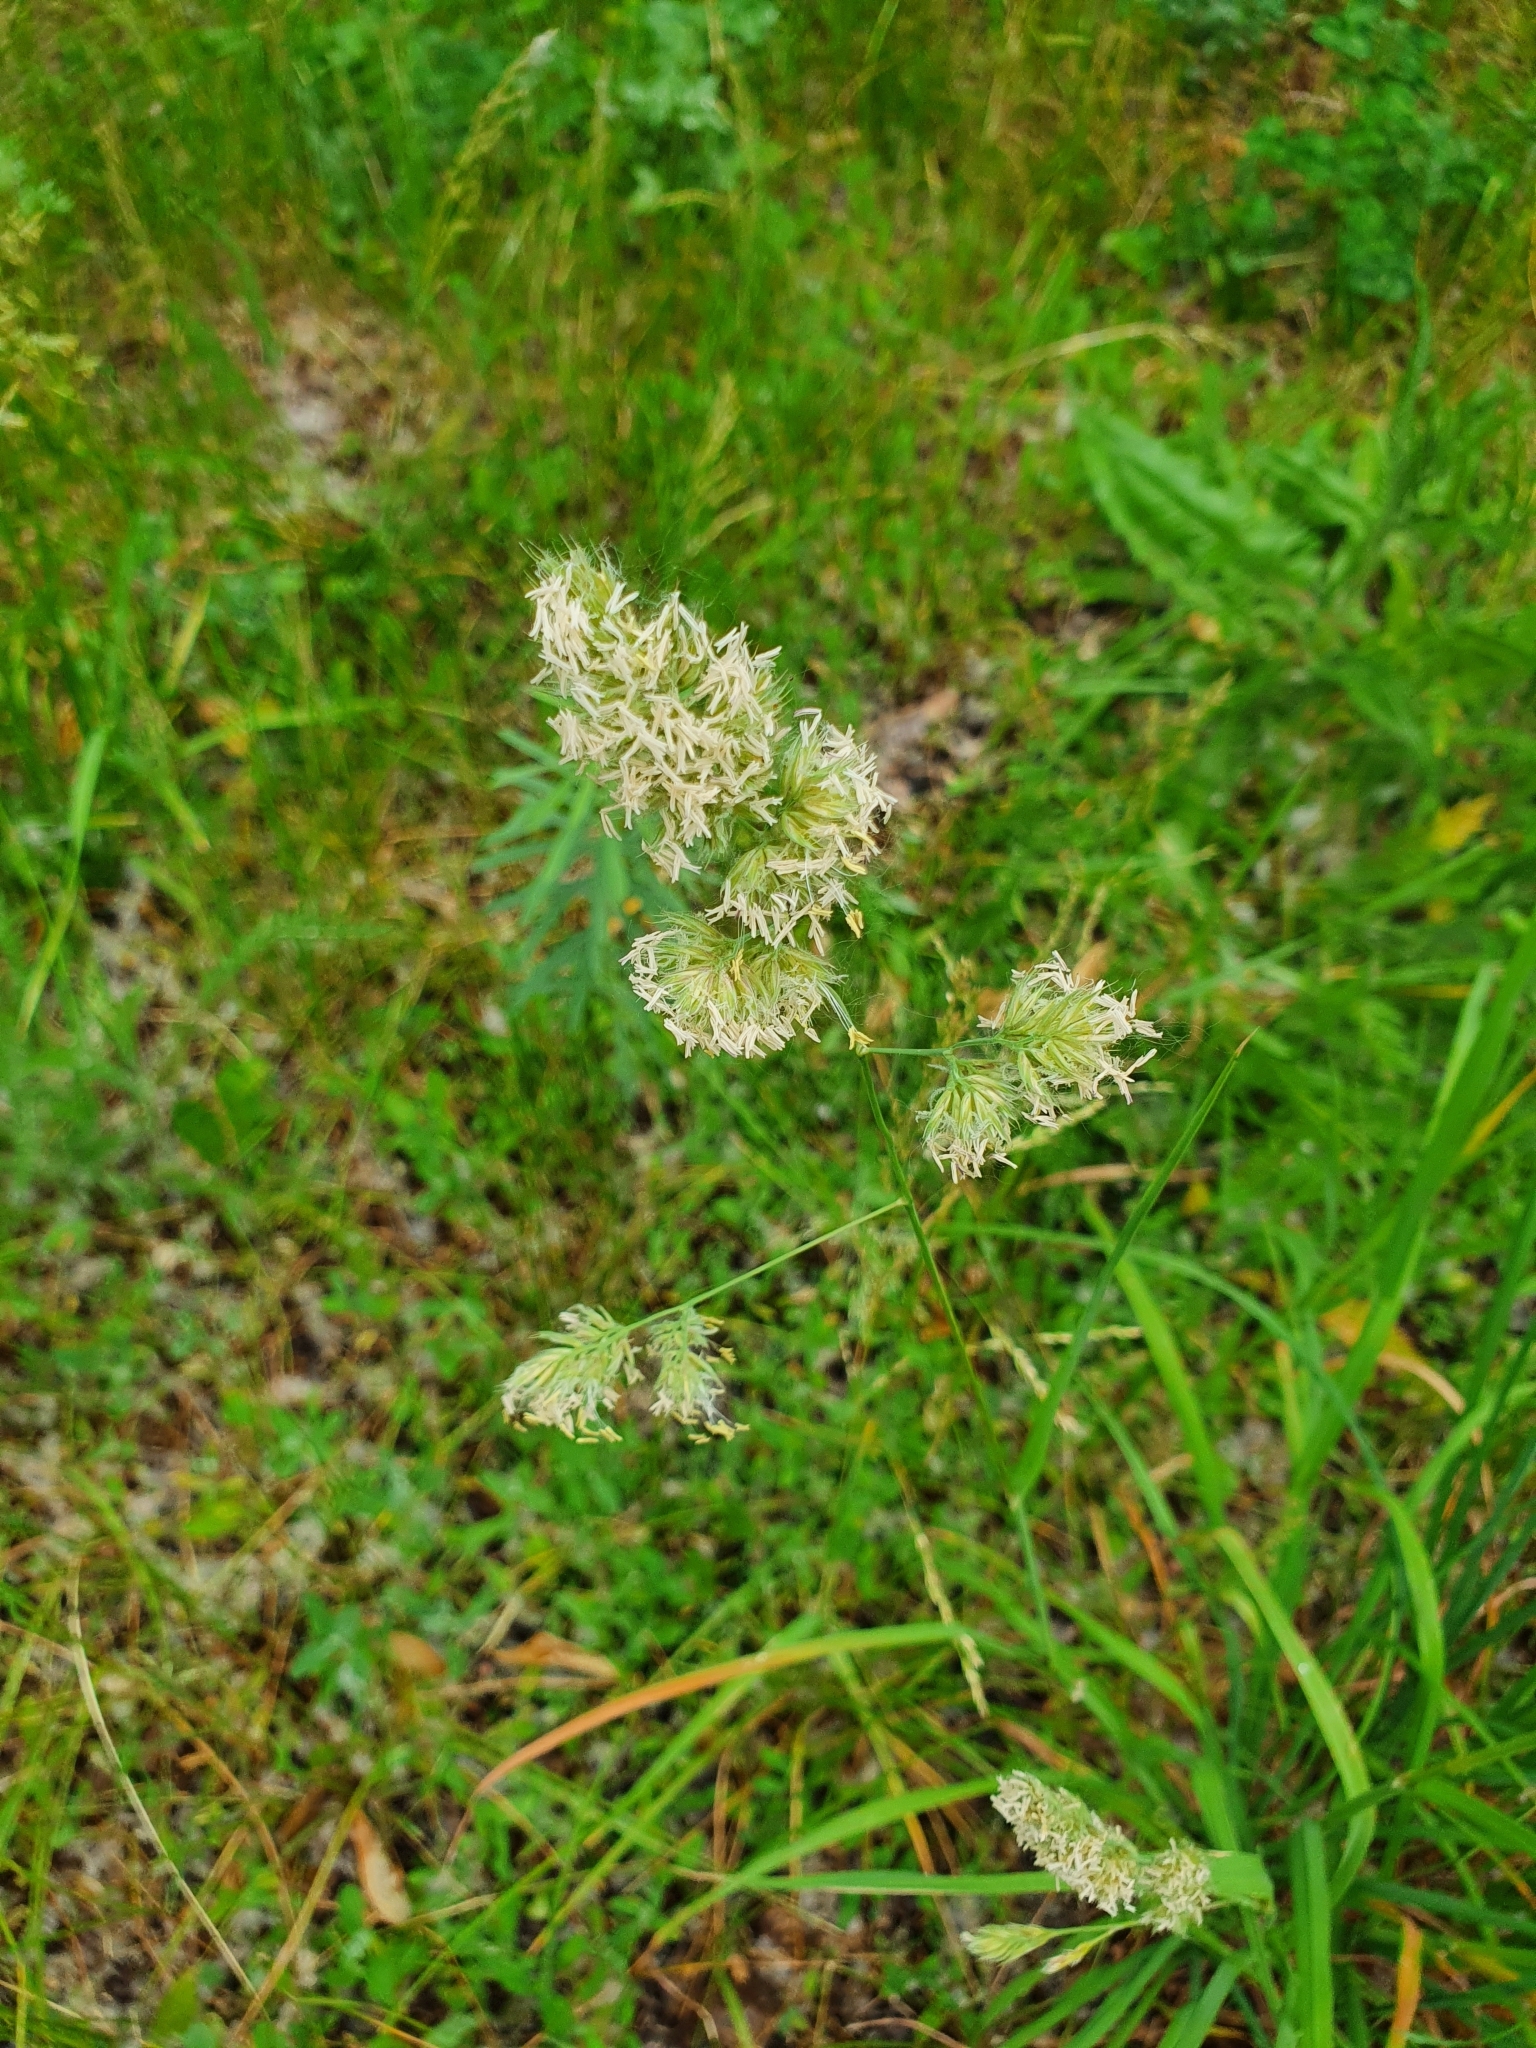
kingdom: Plantae
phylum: Tracheophyta
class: Liliopsida
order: Poales
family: Poaceae
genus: Dactylis
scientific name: Dactylis glomerata
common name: Orchardgrass
